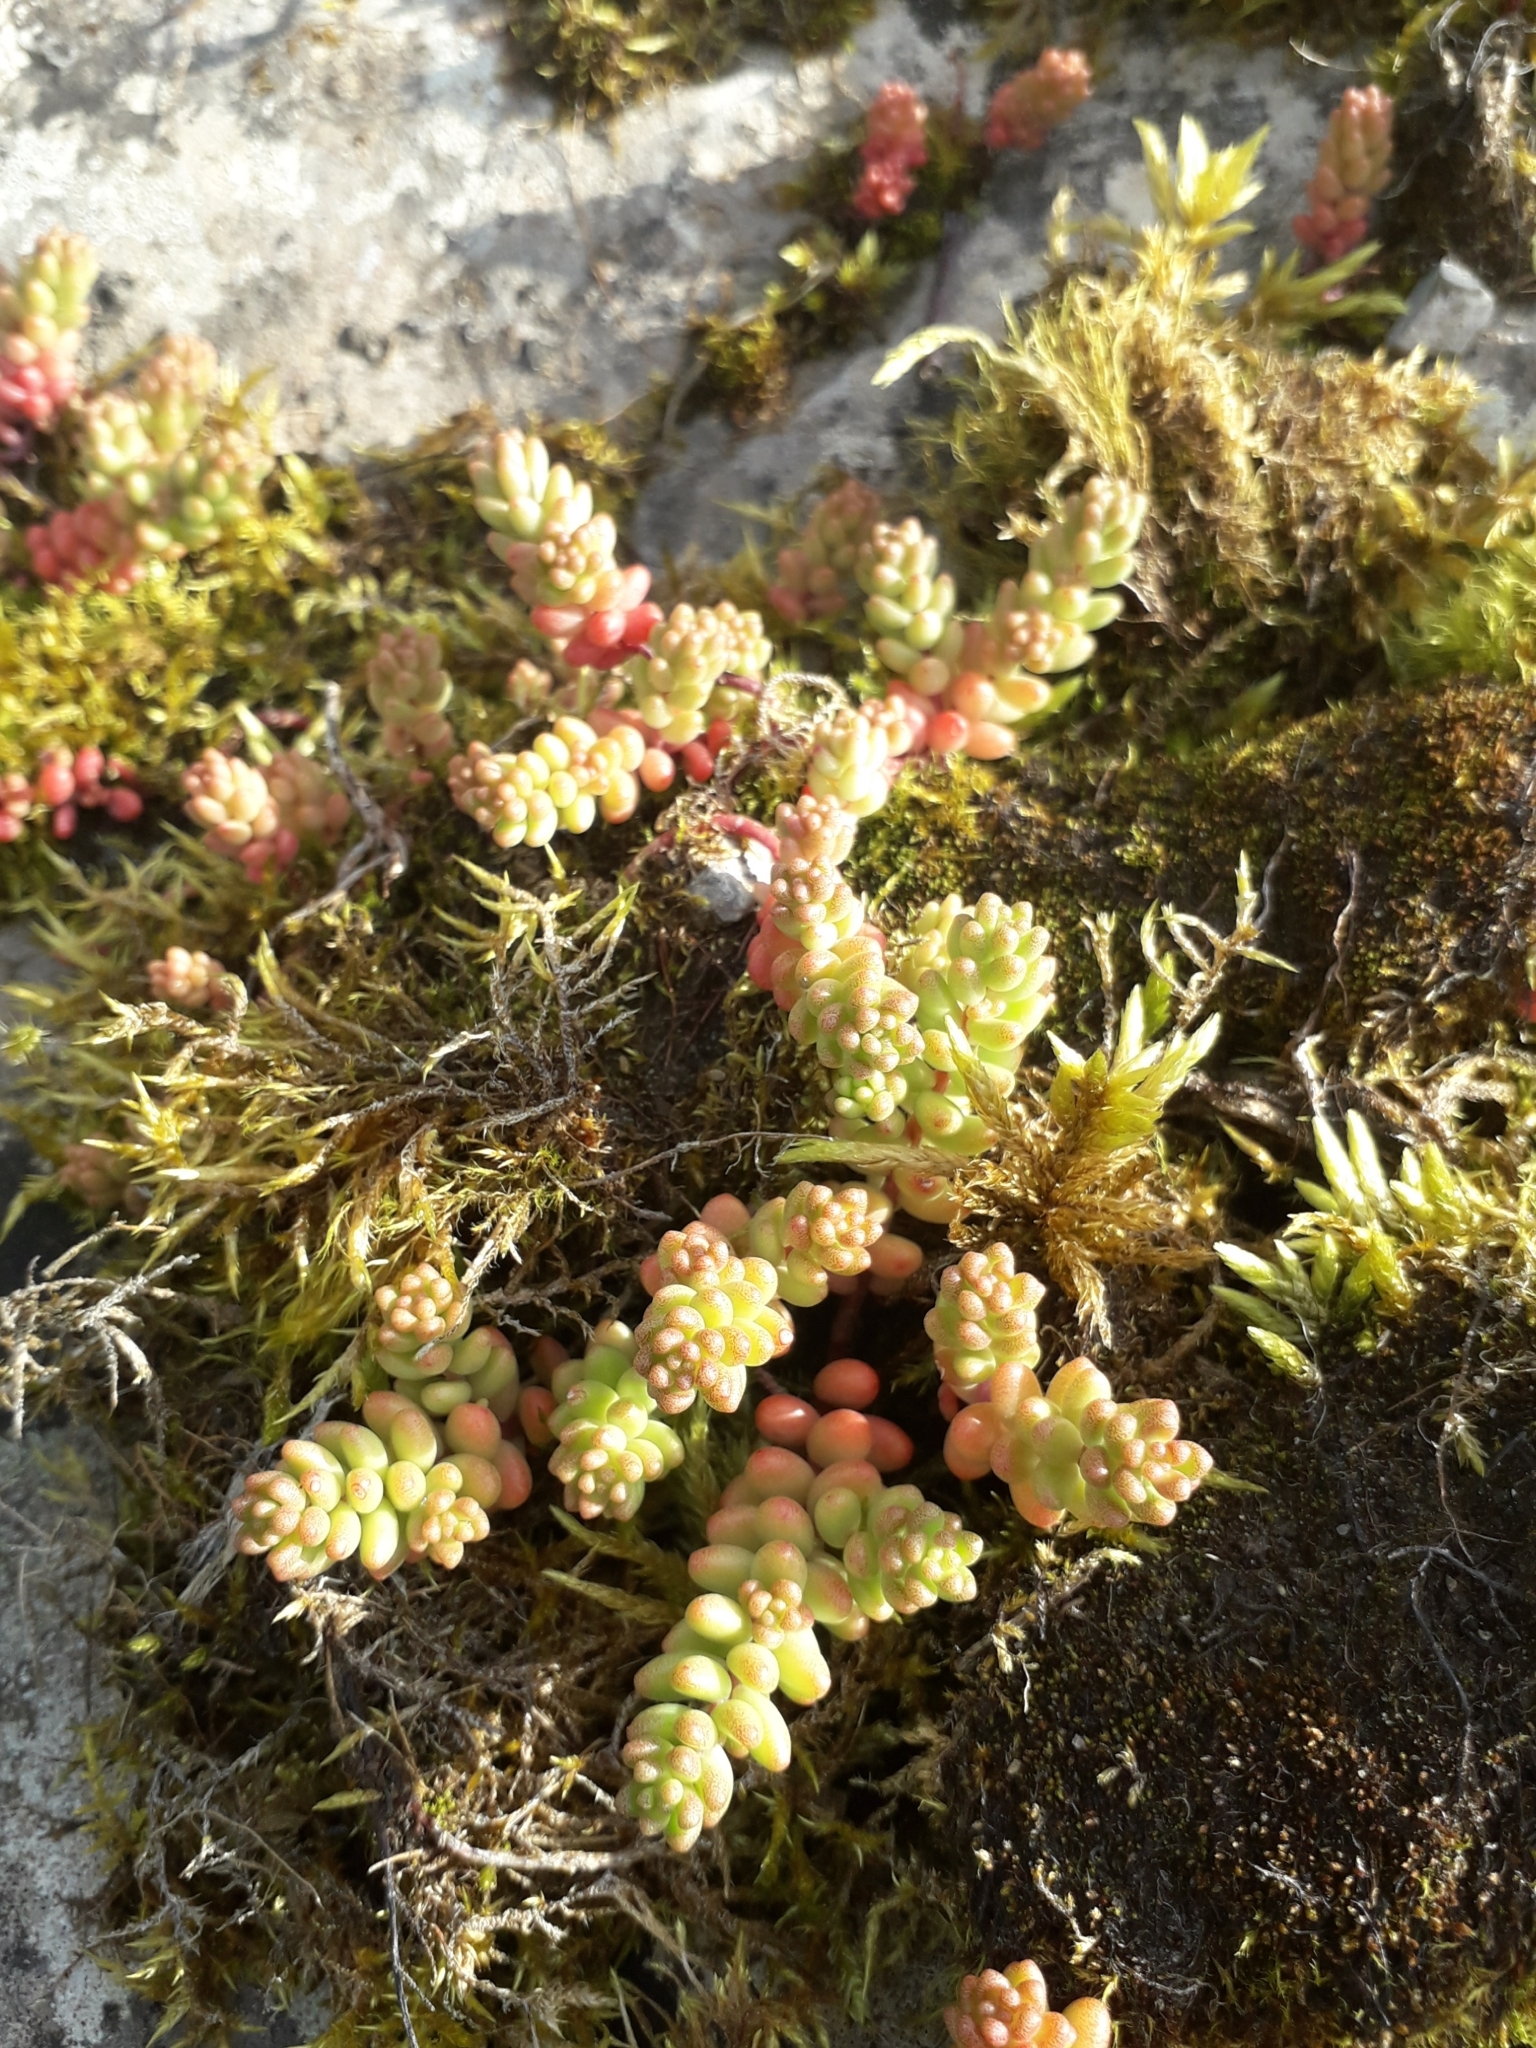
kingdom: Plantae
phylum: Tracheophyta
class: Magnoliopsida
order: Saxifragales
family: Crassulaceae
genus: Sedum
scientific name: Sedum album
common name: White stonecrop
